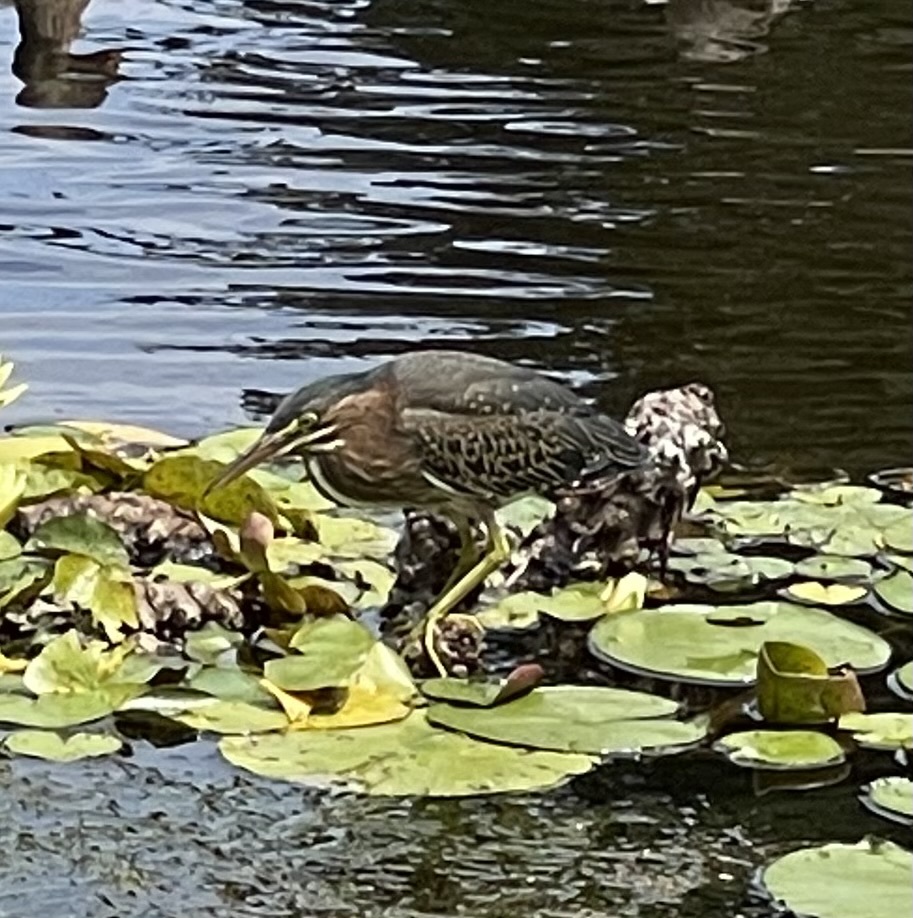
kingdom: Animalia
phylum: Chordata
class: Aves
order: Pelecaniformes
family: Ardeidae
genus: Butorides
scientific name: Butorides virescens
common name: Green heron
